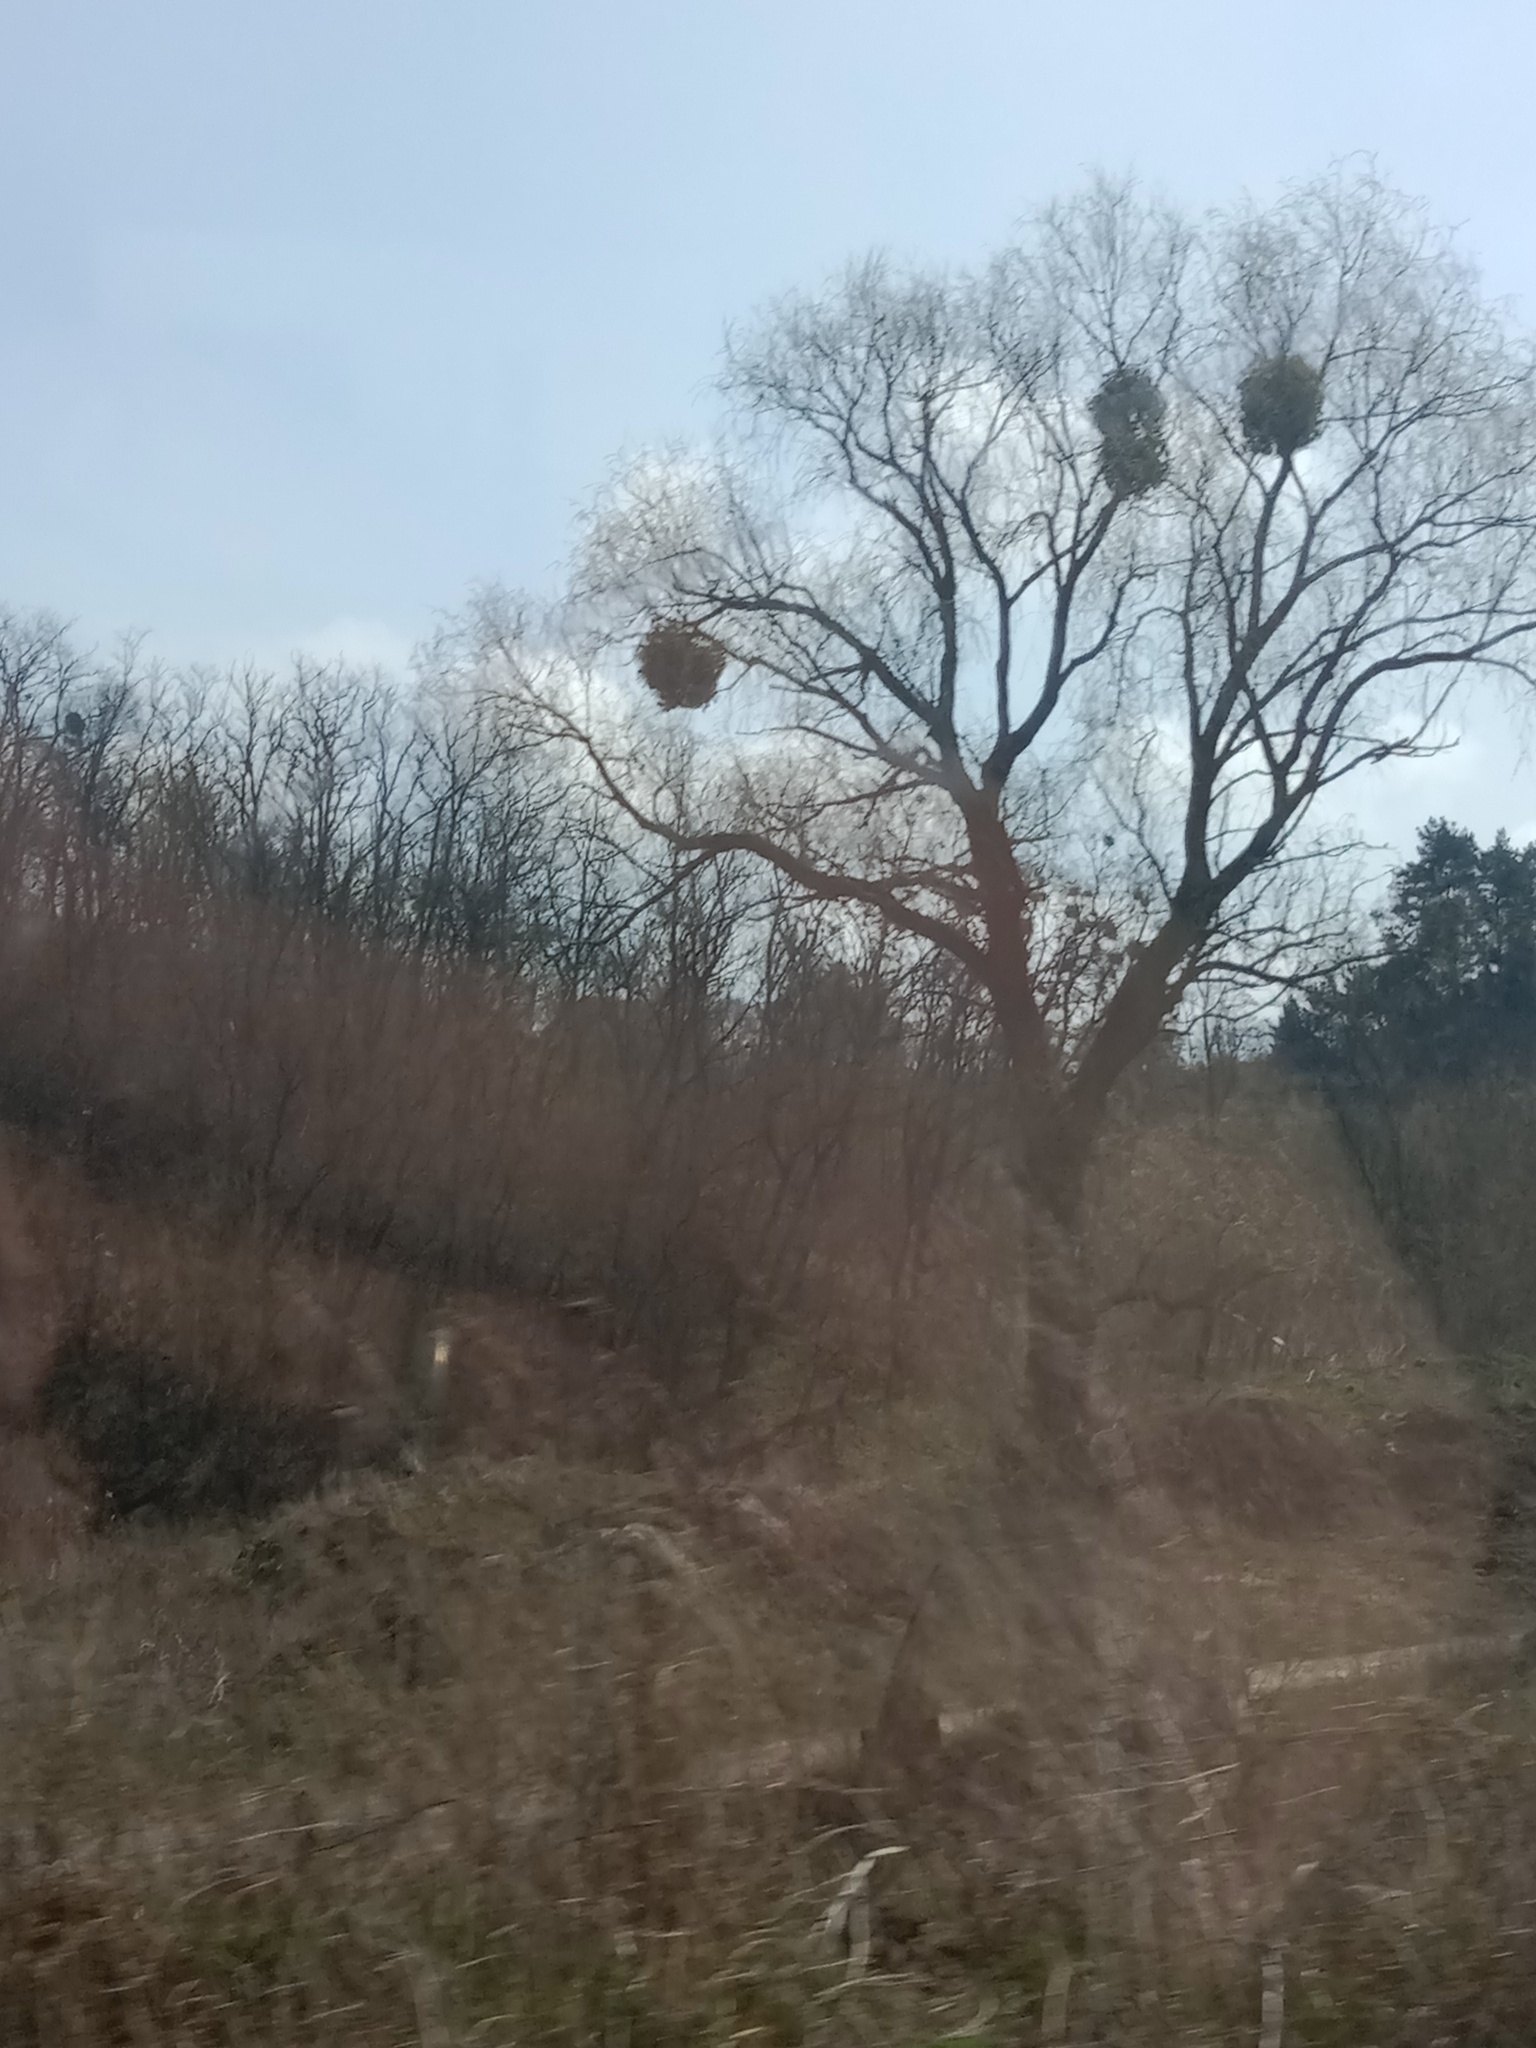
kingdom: Plantae
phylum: Tracheophyta
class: Magnoliopsida
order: Santalales
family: Viscaceae
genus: Viscum
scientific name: Viscum album
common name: Mistletoe
